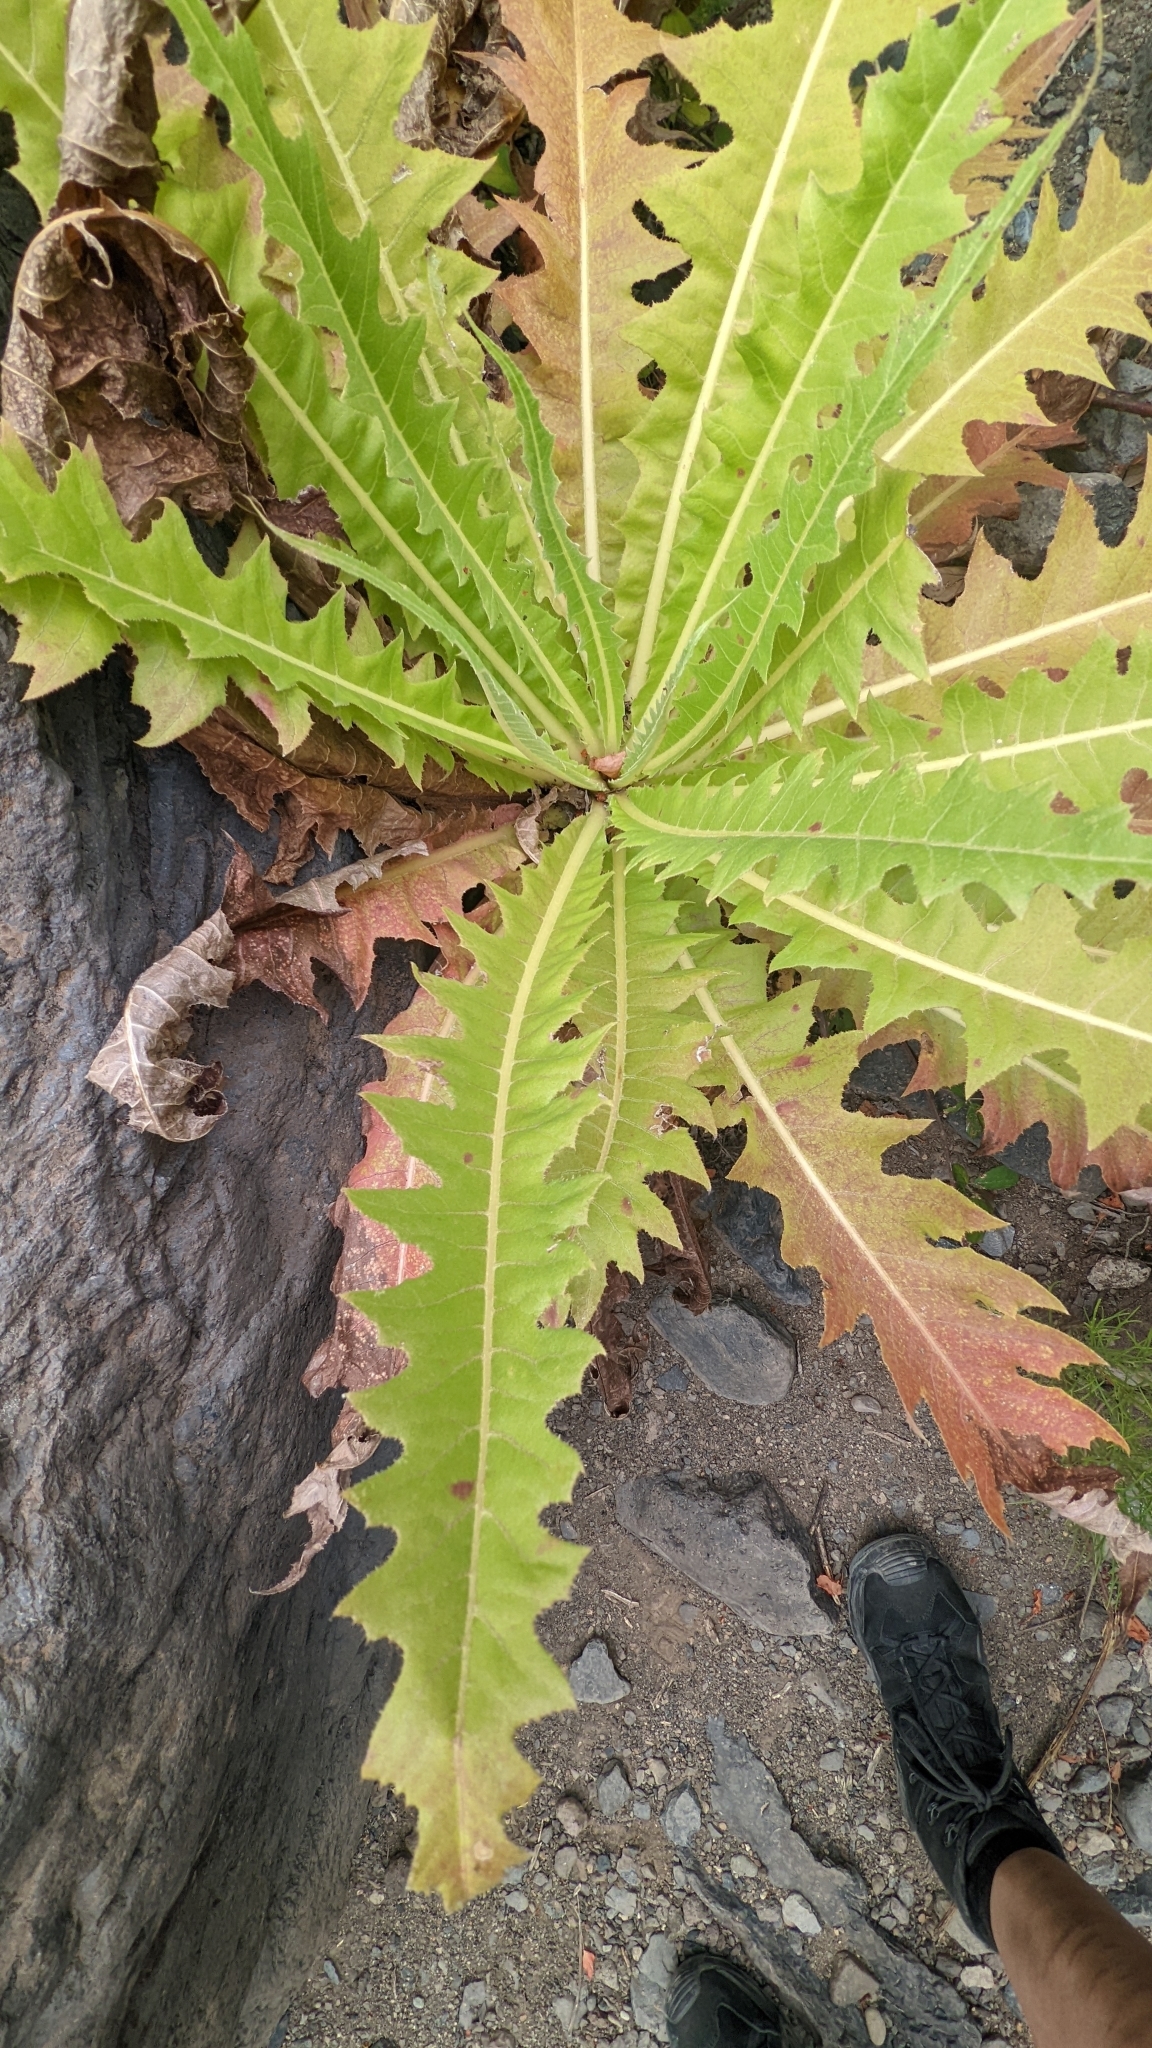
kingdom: Plantae
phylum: Tracheophyta
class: Magnoliopsida
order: Asterales
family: Asteraceae
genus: Sonchus
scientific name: Sonchus acaulis
